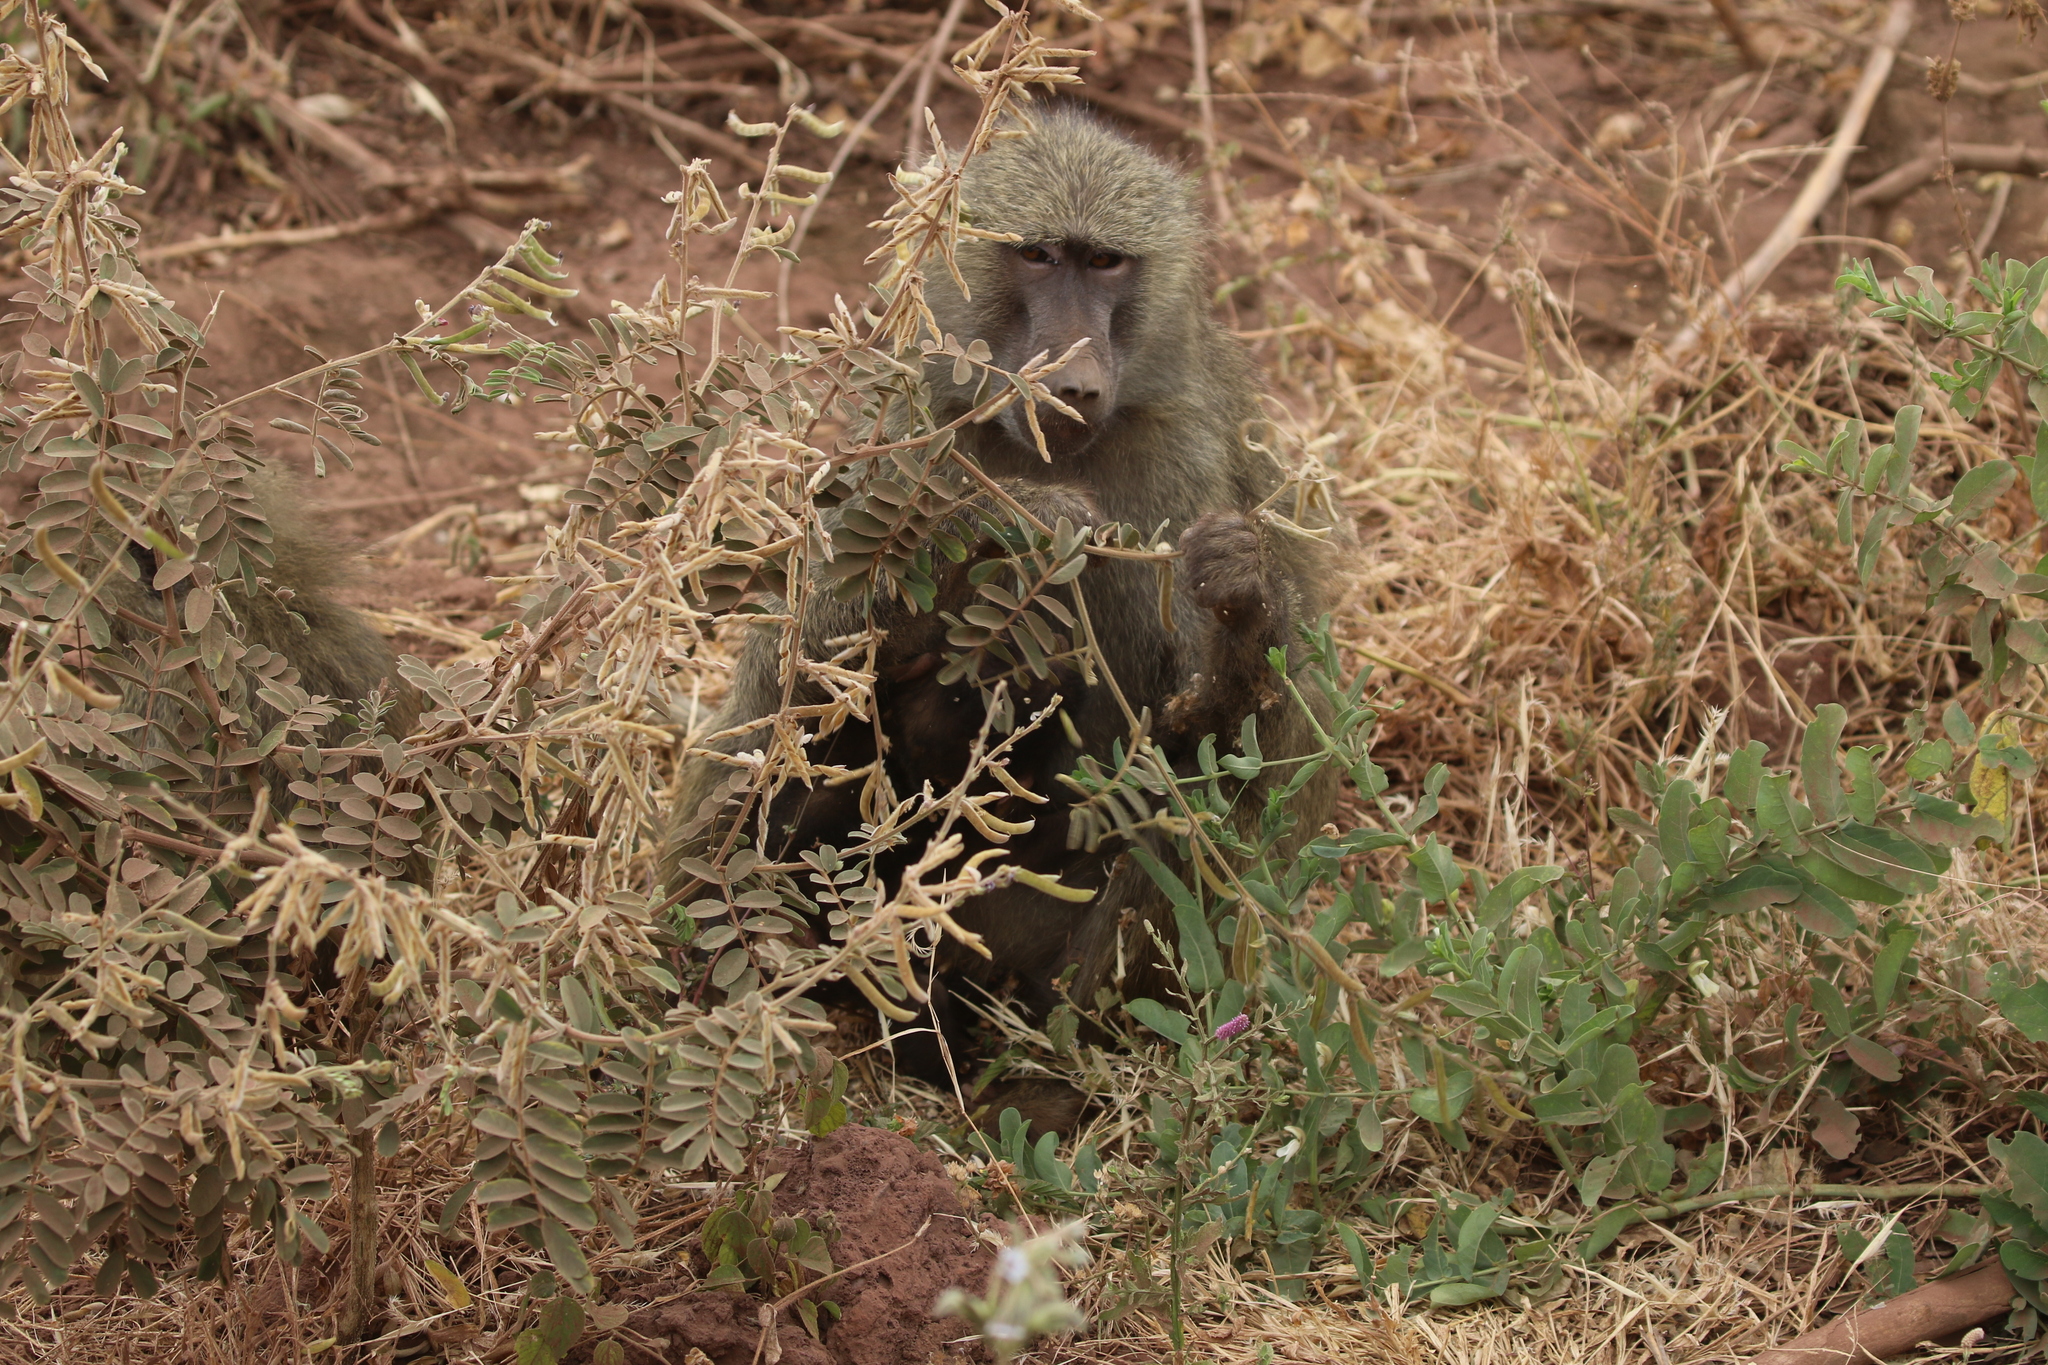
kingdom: Animalia
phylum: Chordata
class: Mammalia
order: Primates
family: Cercopithecidae
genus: Papio
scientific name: Papio anubis
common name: Olive baboon
